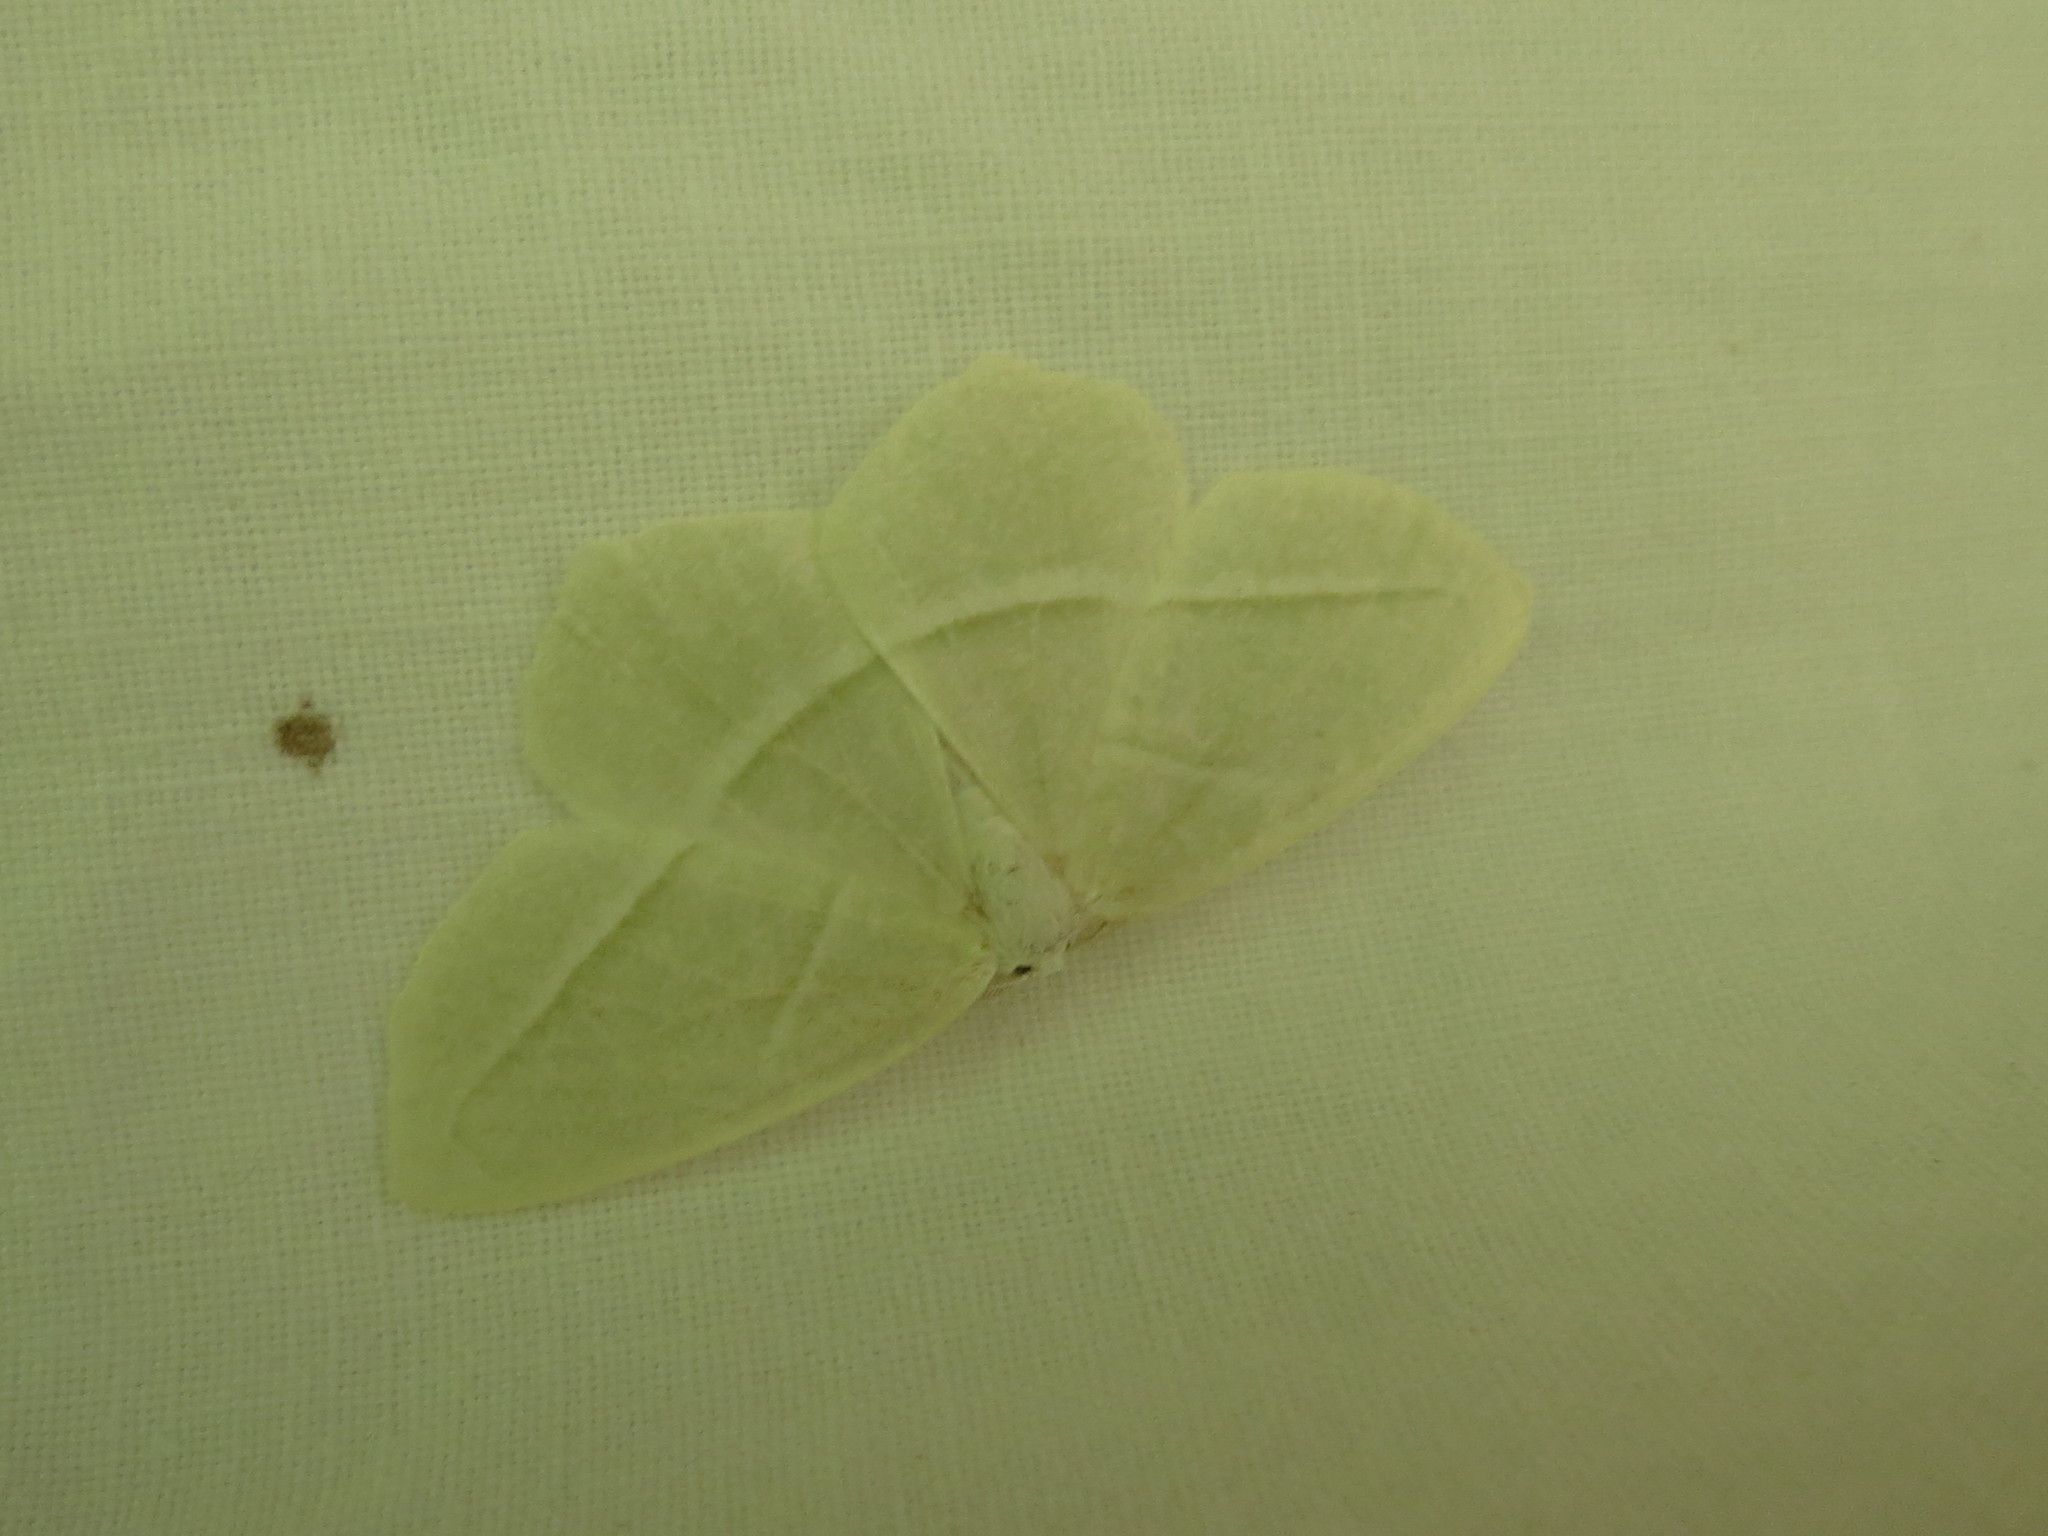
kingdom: Animalia
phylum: Arthropoda
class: Insecta
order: Lepidoptera
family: Geometridae
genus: Campaea
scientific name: Campaea perlata
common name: Fringed looper
